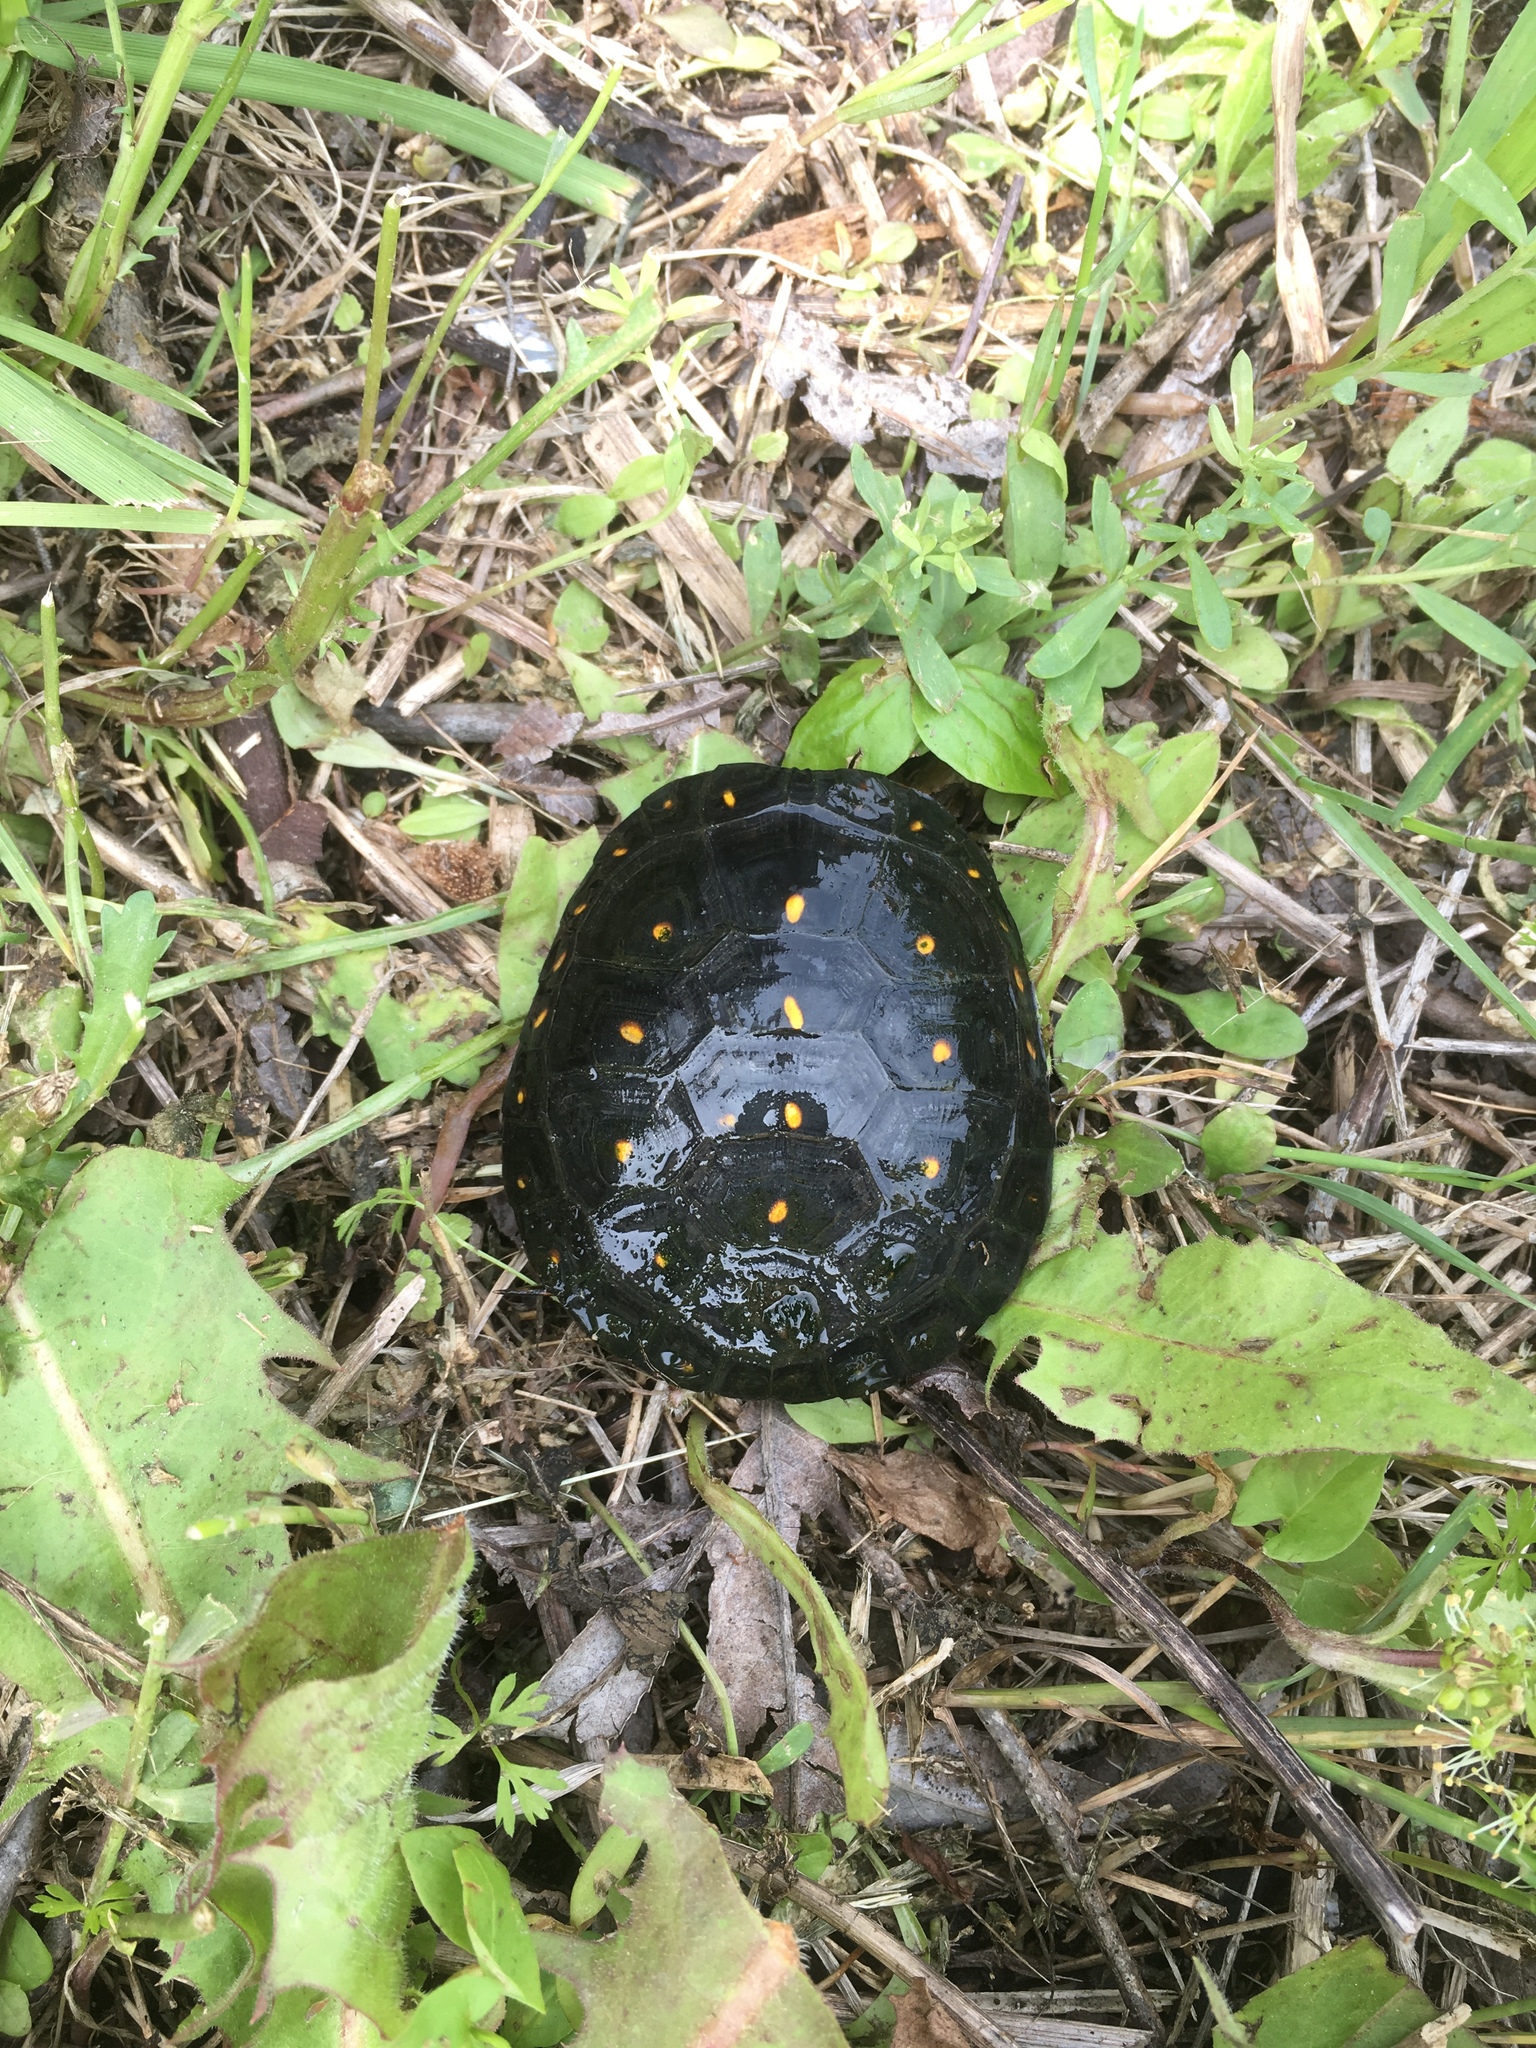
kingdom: Animalia
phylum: Chordata
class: Testudines
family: Emydidae
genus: Clemmys
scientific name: Clemmys guttata
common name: Spotted turtle
